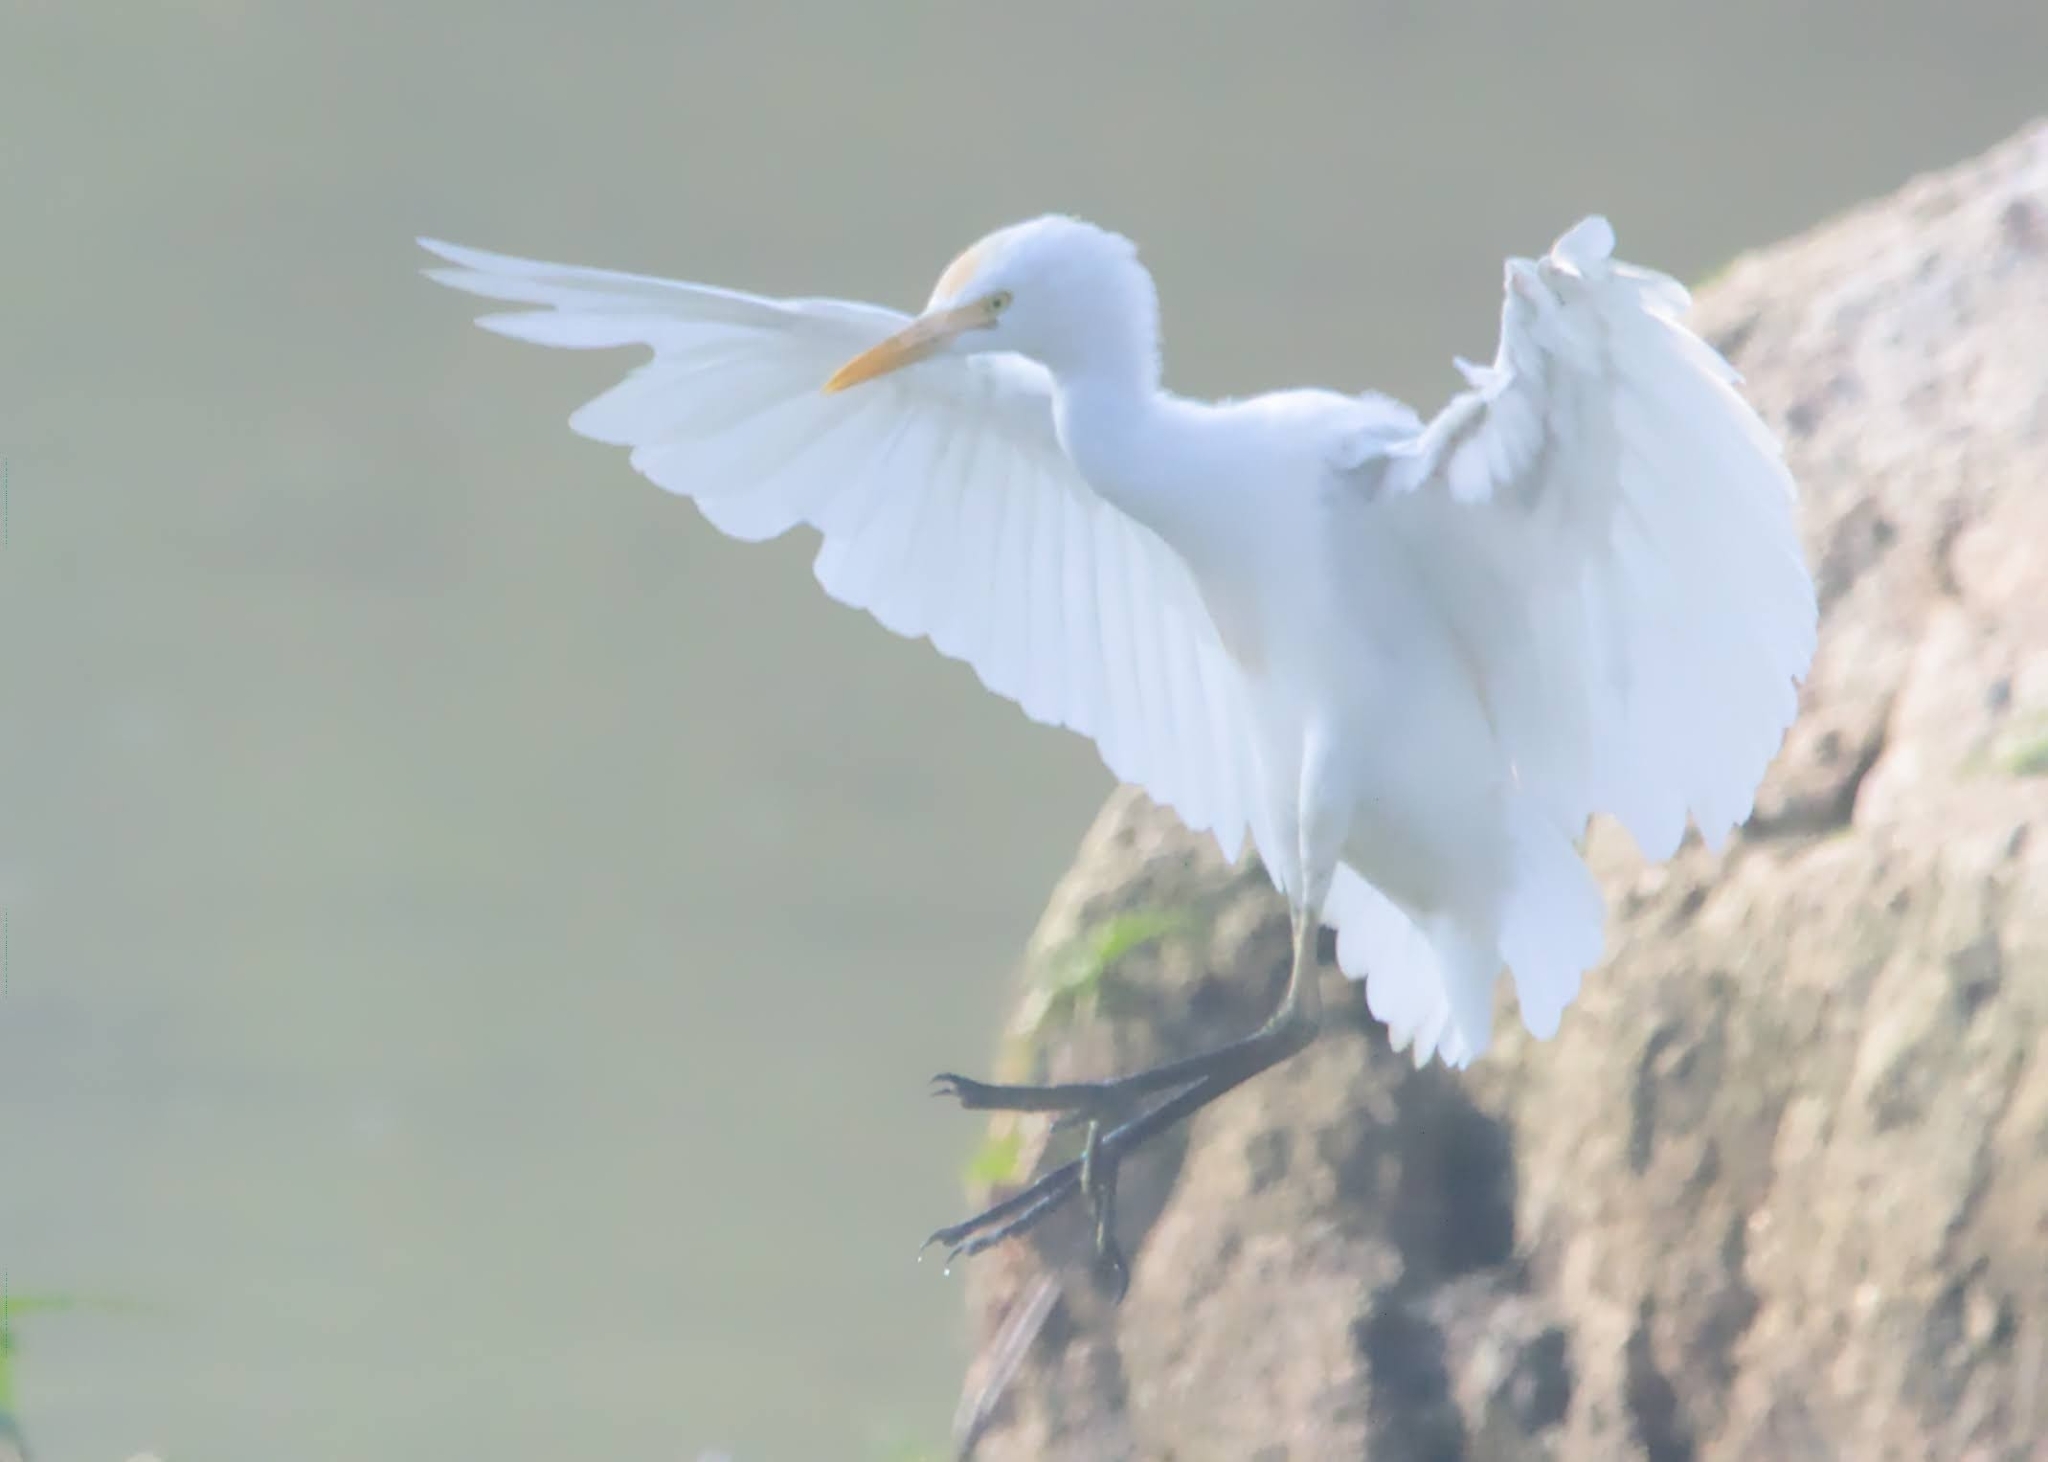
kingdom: Animalia
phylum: Chordata
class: Aves
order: Pelecaniformes
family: Ardeidae
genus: Bubulcus
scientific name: Bubulcus coromandus
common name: Eastern cattle egret
